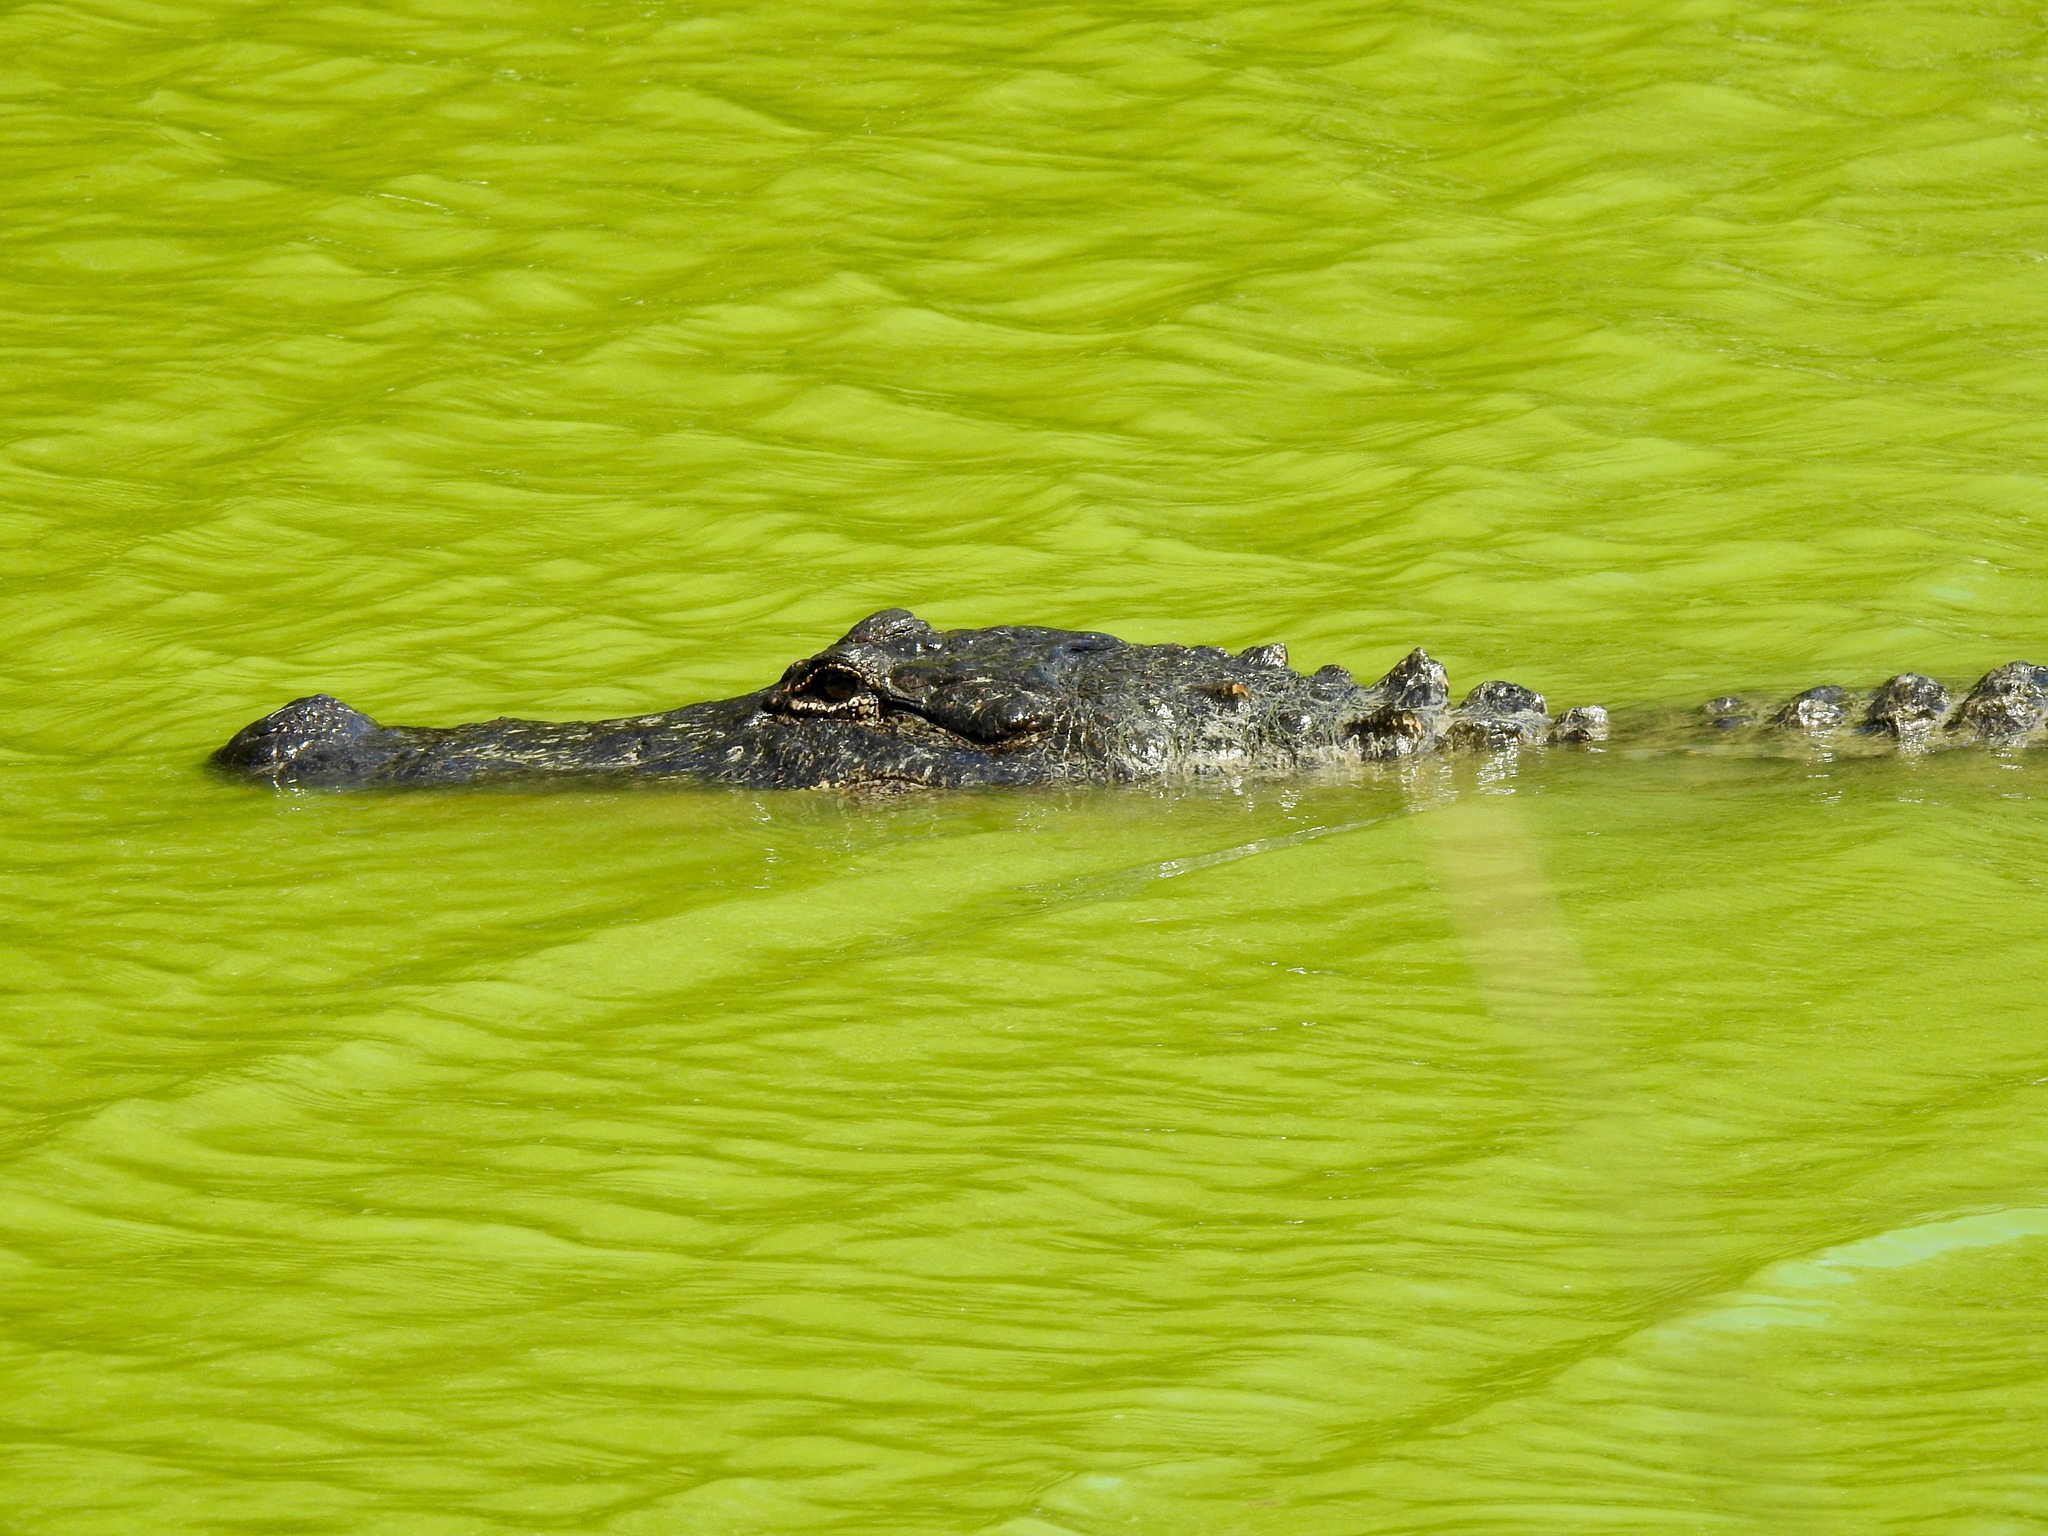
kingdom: Animalia
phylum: Chordata
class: Crocodylia
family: Alligatoridae
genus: Alligator
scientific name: Alligator mississippiensis
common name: American alligator
